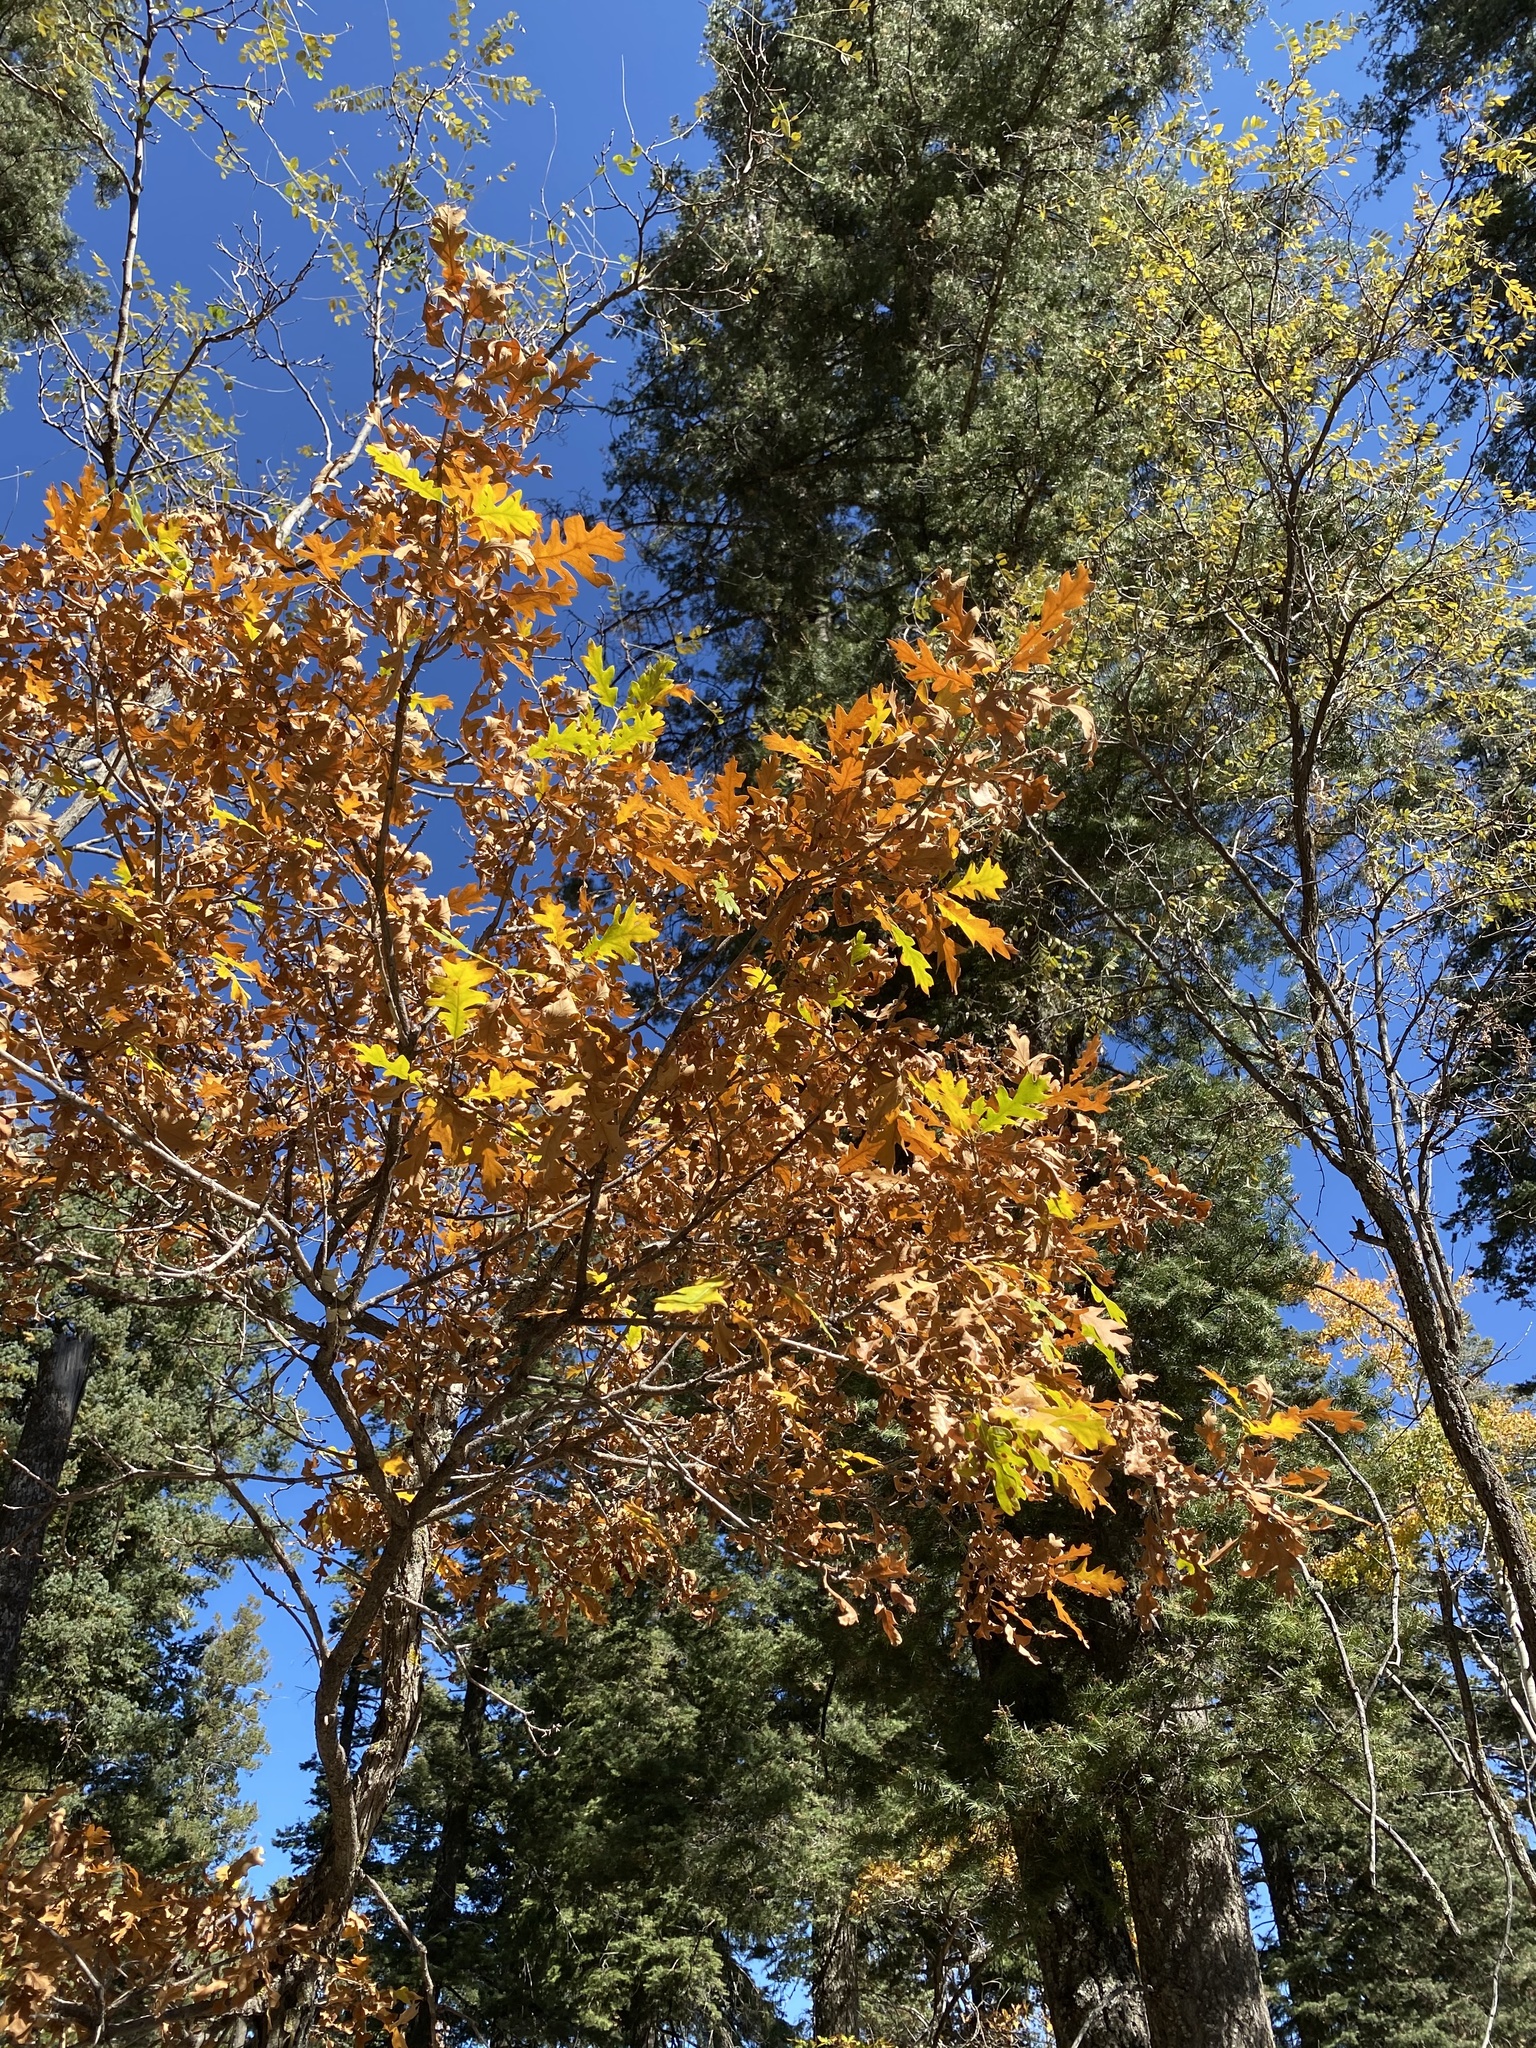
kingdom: Plantae
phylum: Tracheophyta
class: Magnoliopsida
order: Fagales
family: Fagaceae
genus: Quercus
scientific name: Quercus gambelii
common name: Gambel oak
